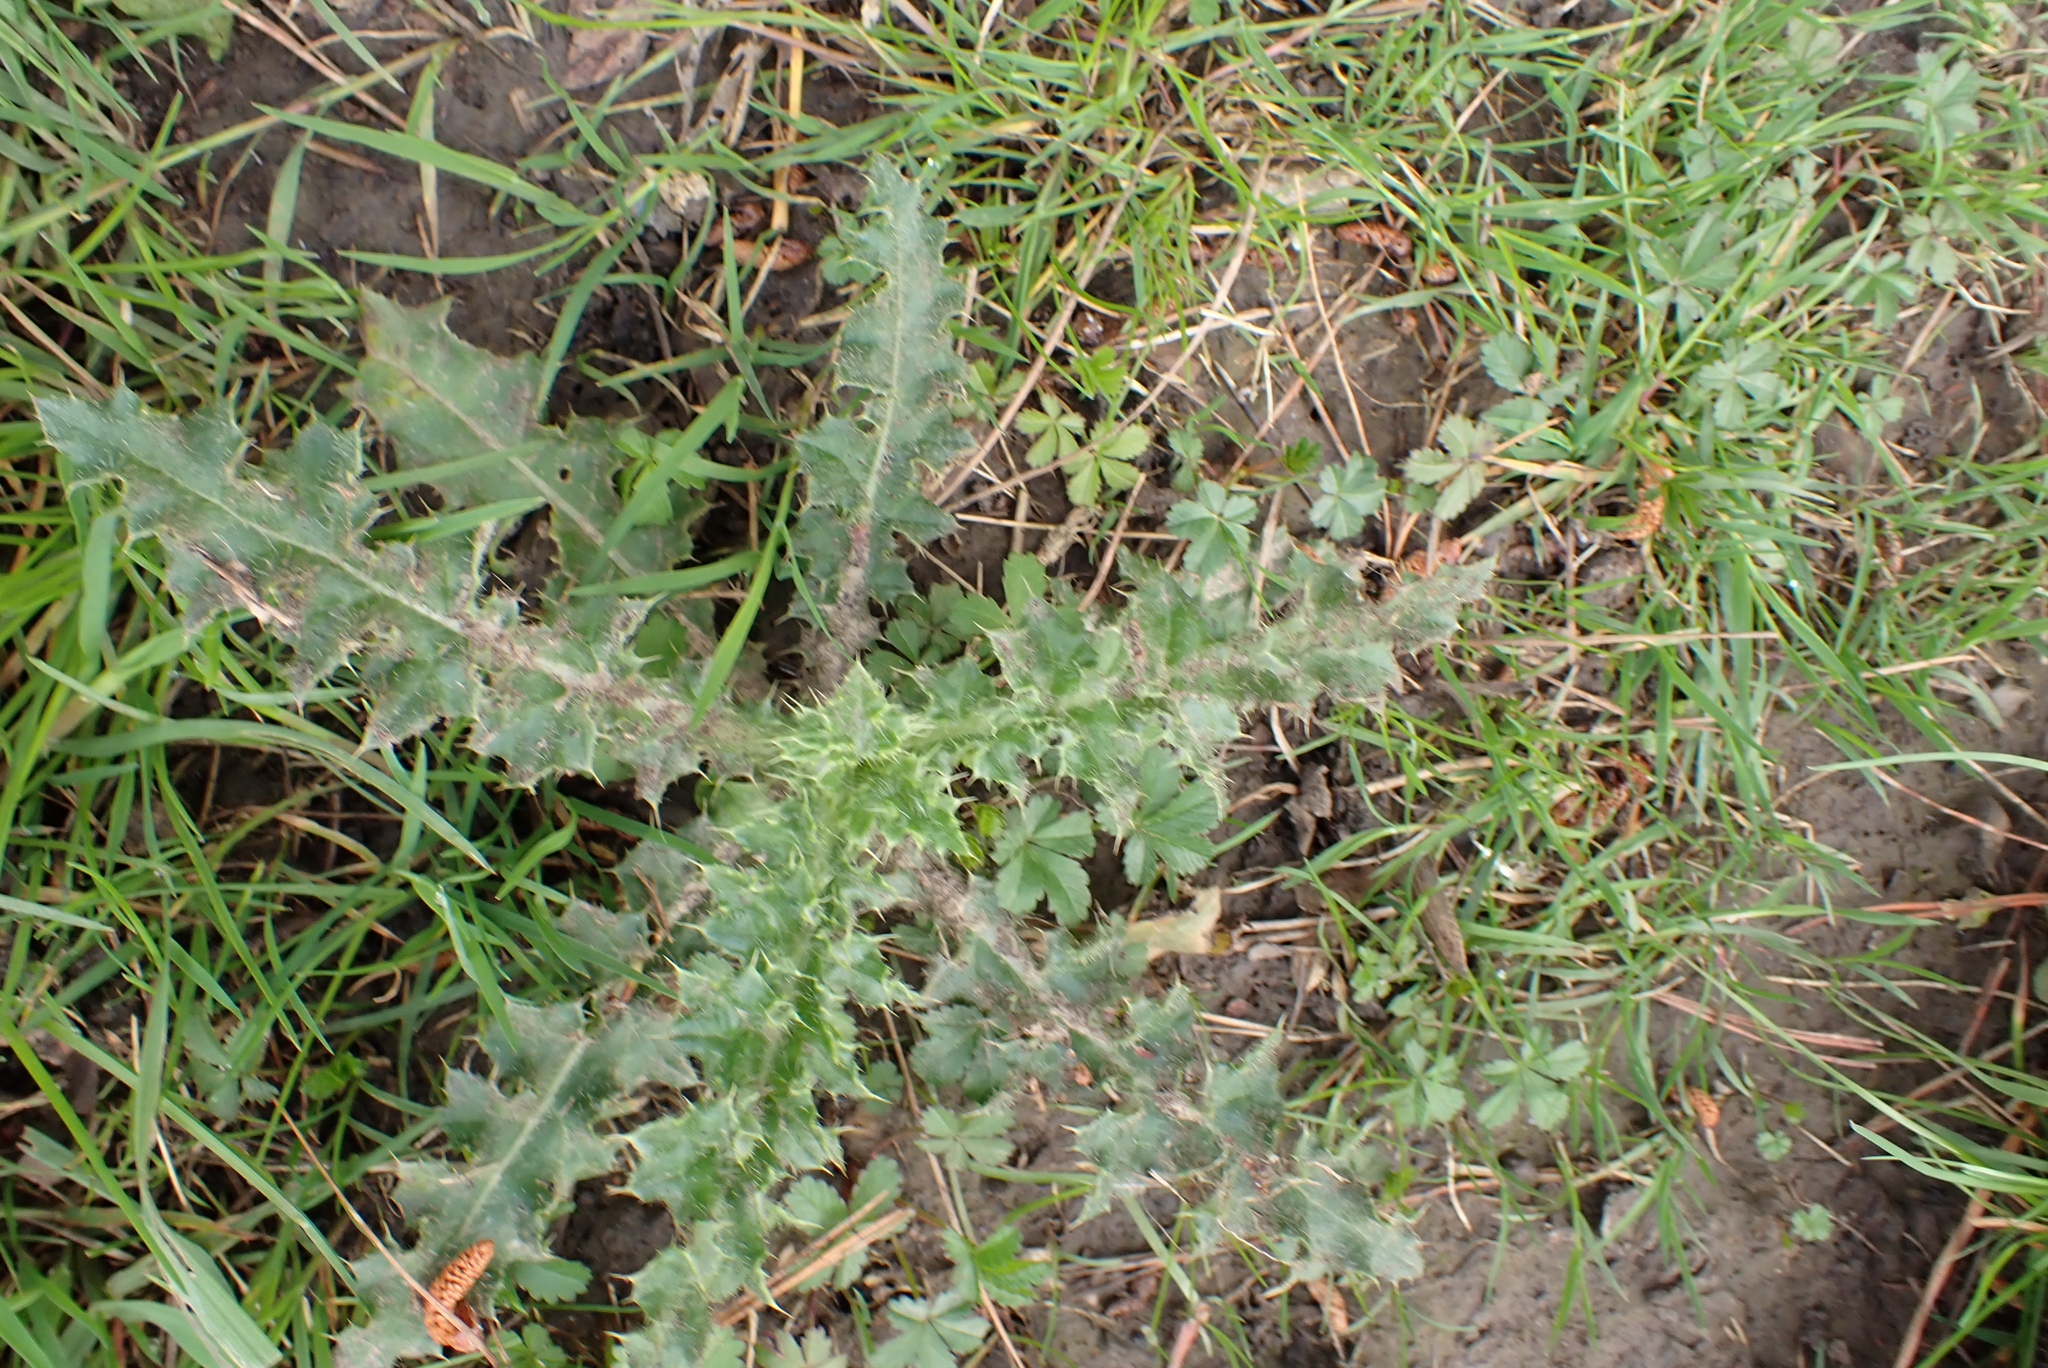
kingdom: Plantae
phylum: Tracheophyta
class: Magnoliopsida
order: Asterales
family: Asteraceae
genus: Cirsium
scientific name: Cirsium arvense
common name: Creeping thistle
